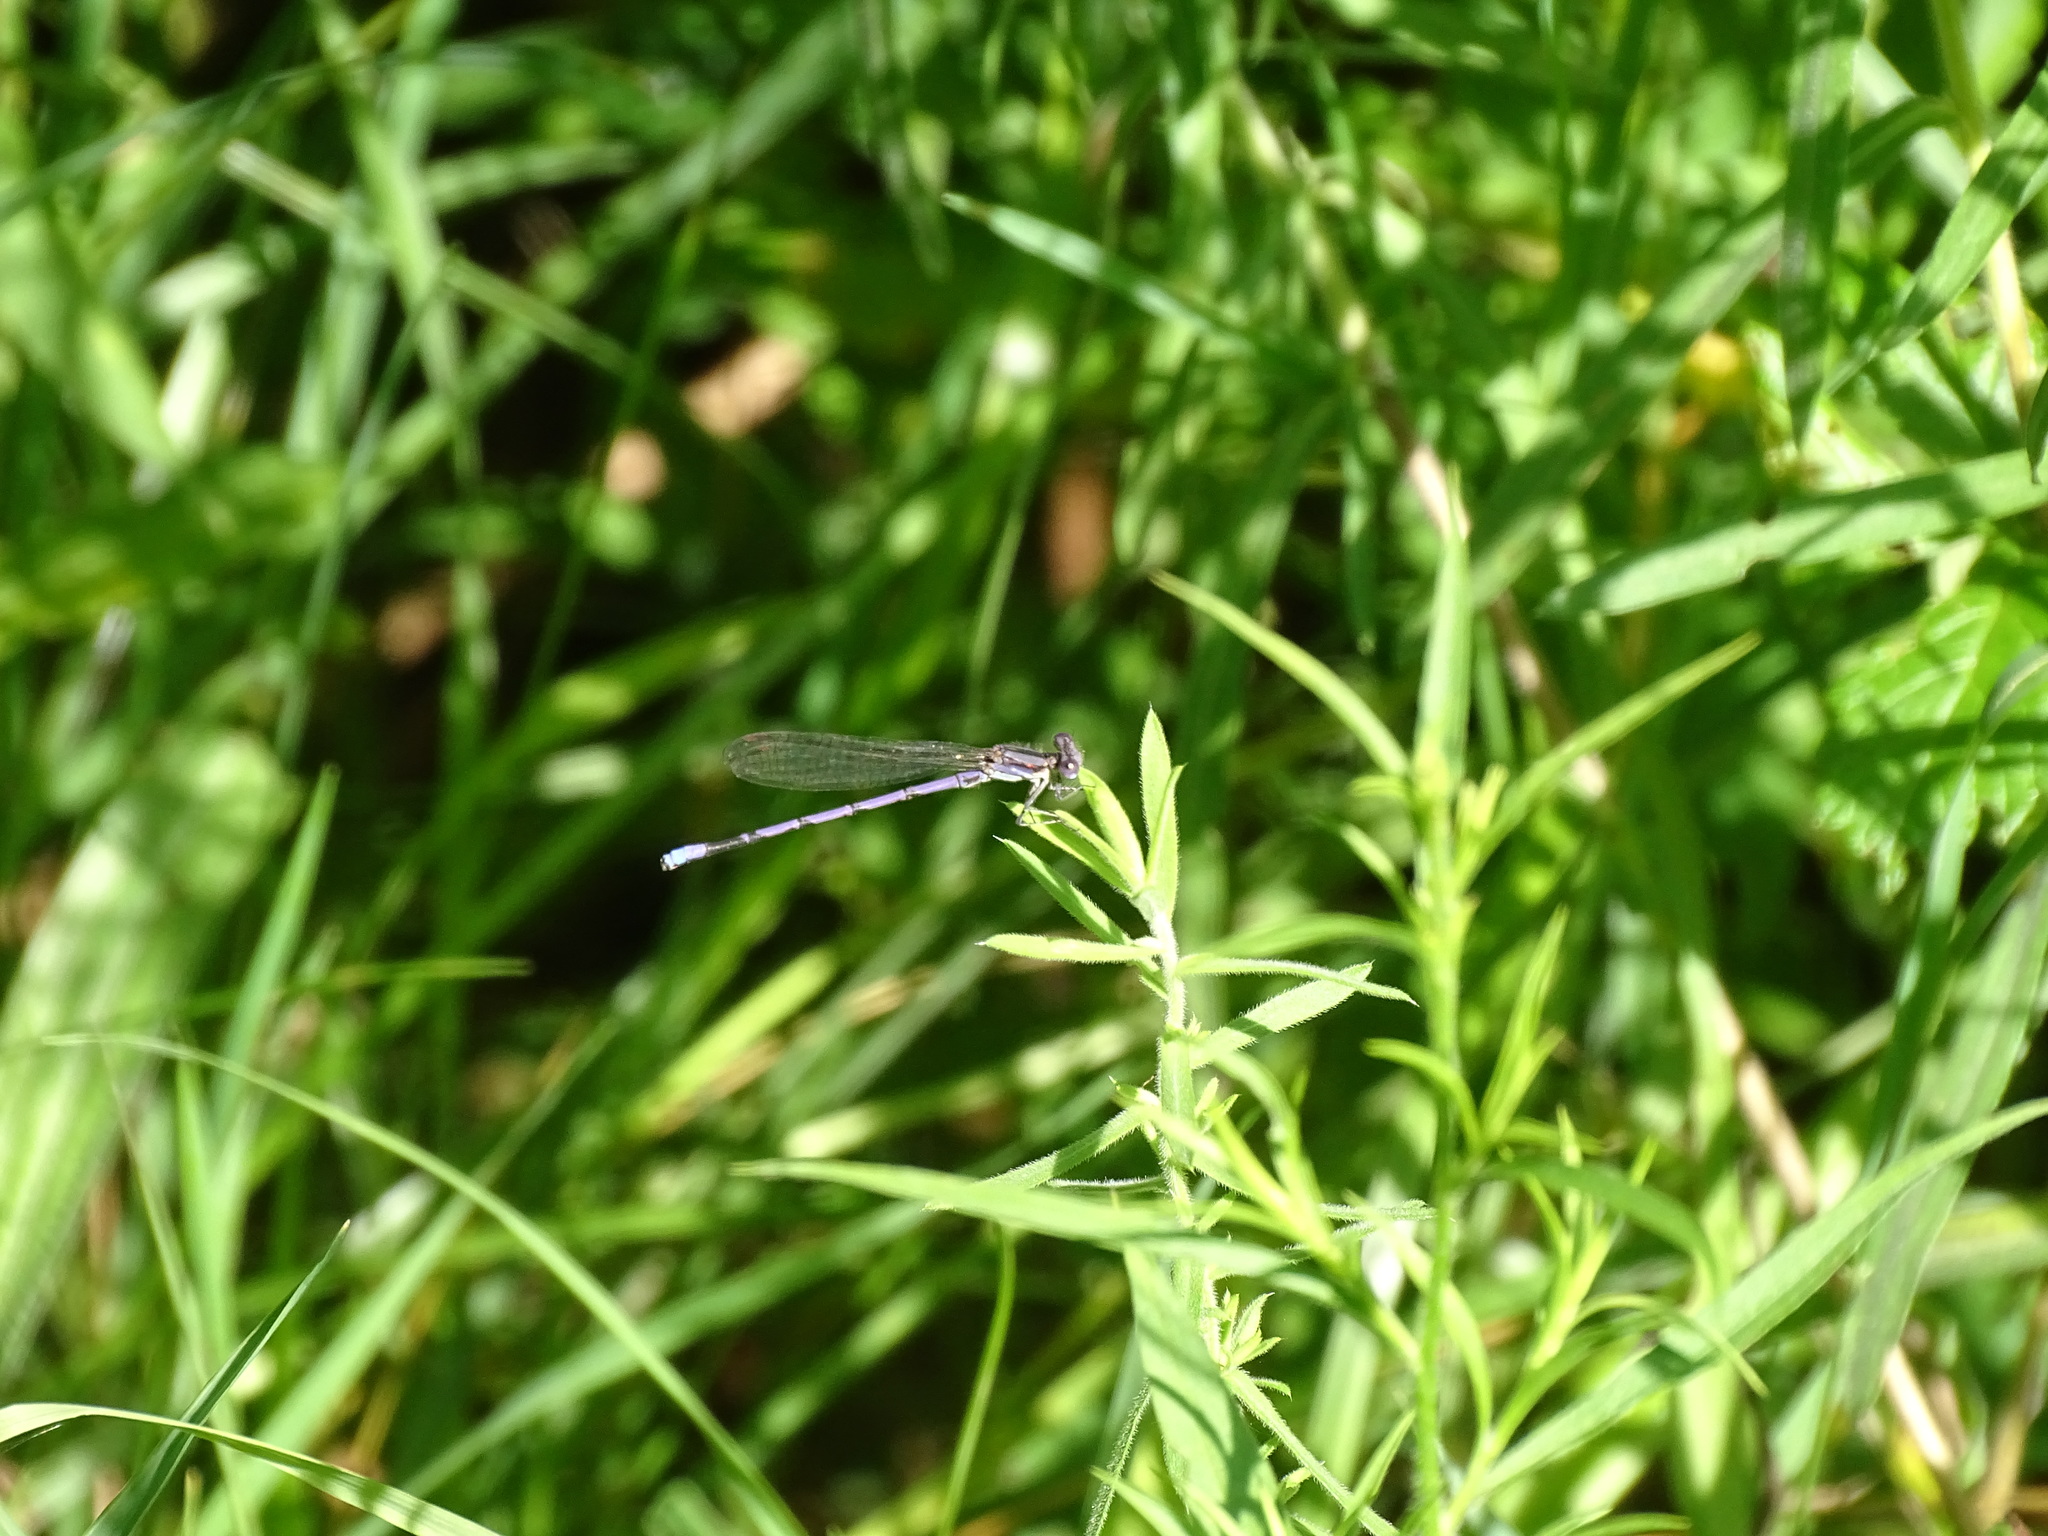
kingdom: Animalia
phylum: Arthropoda
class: Insecta
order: Odonata
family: Coenagrionidae
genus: Argia
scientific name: Argia fumipennis
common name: Variable dancer
